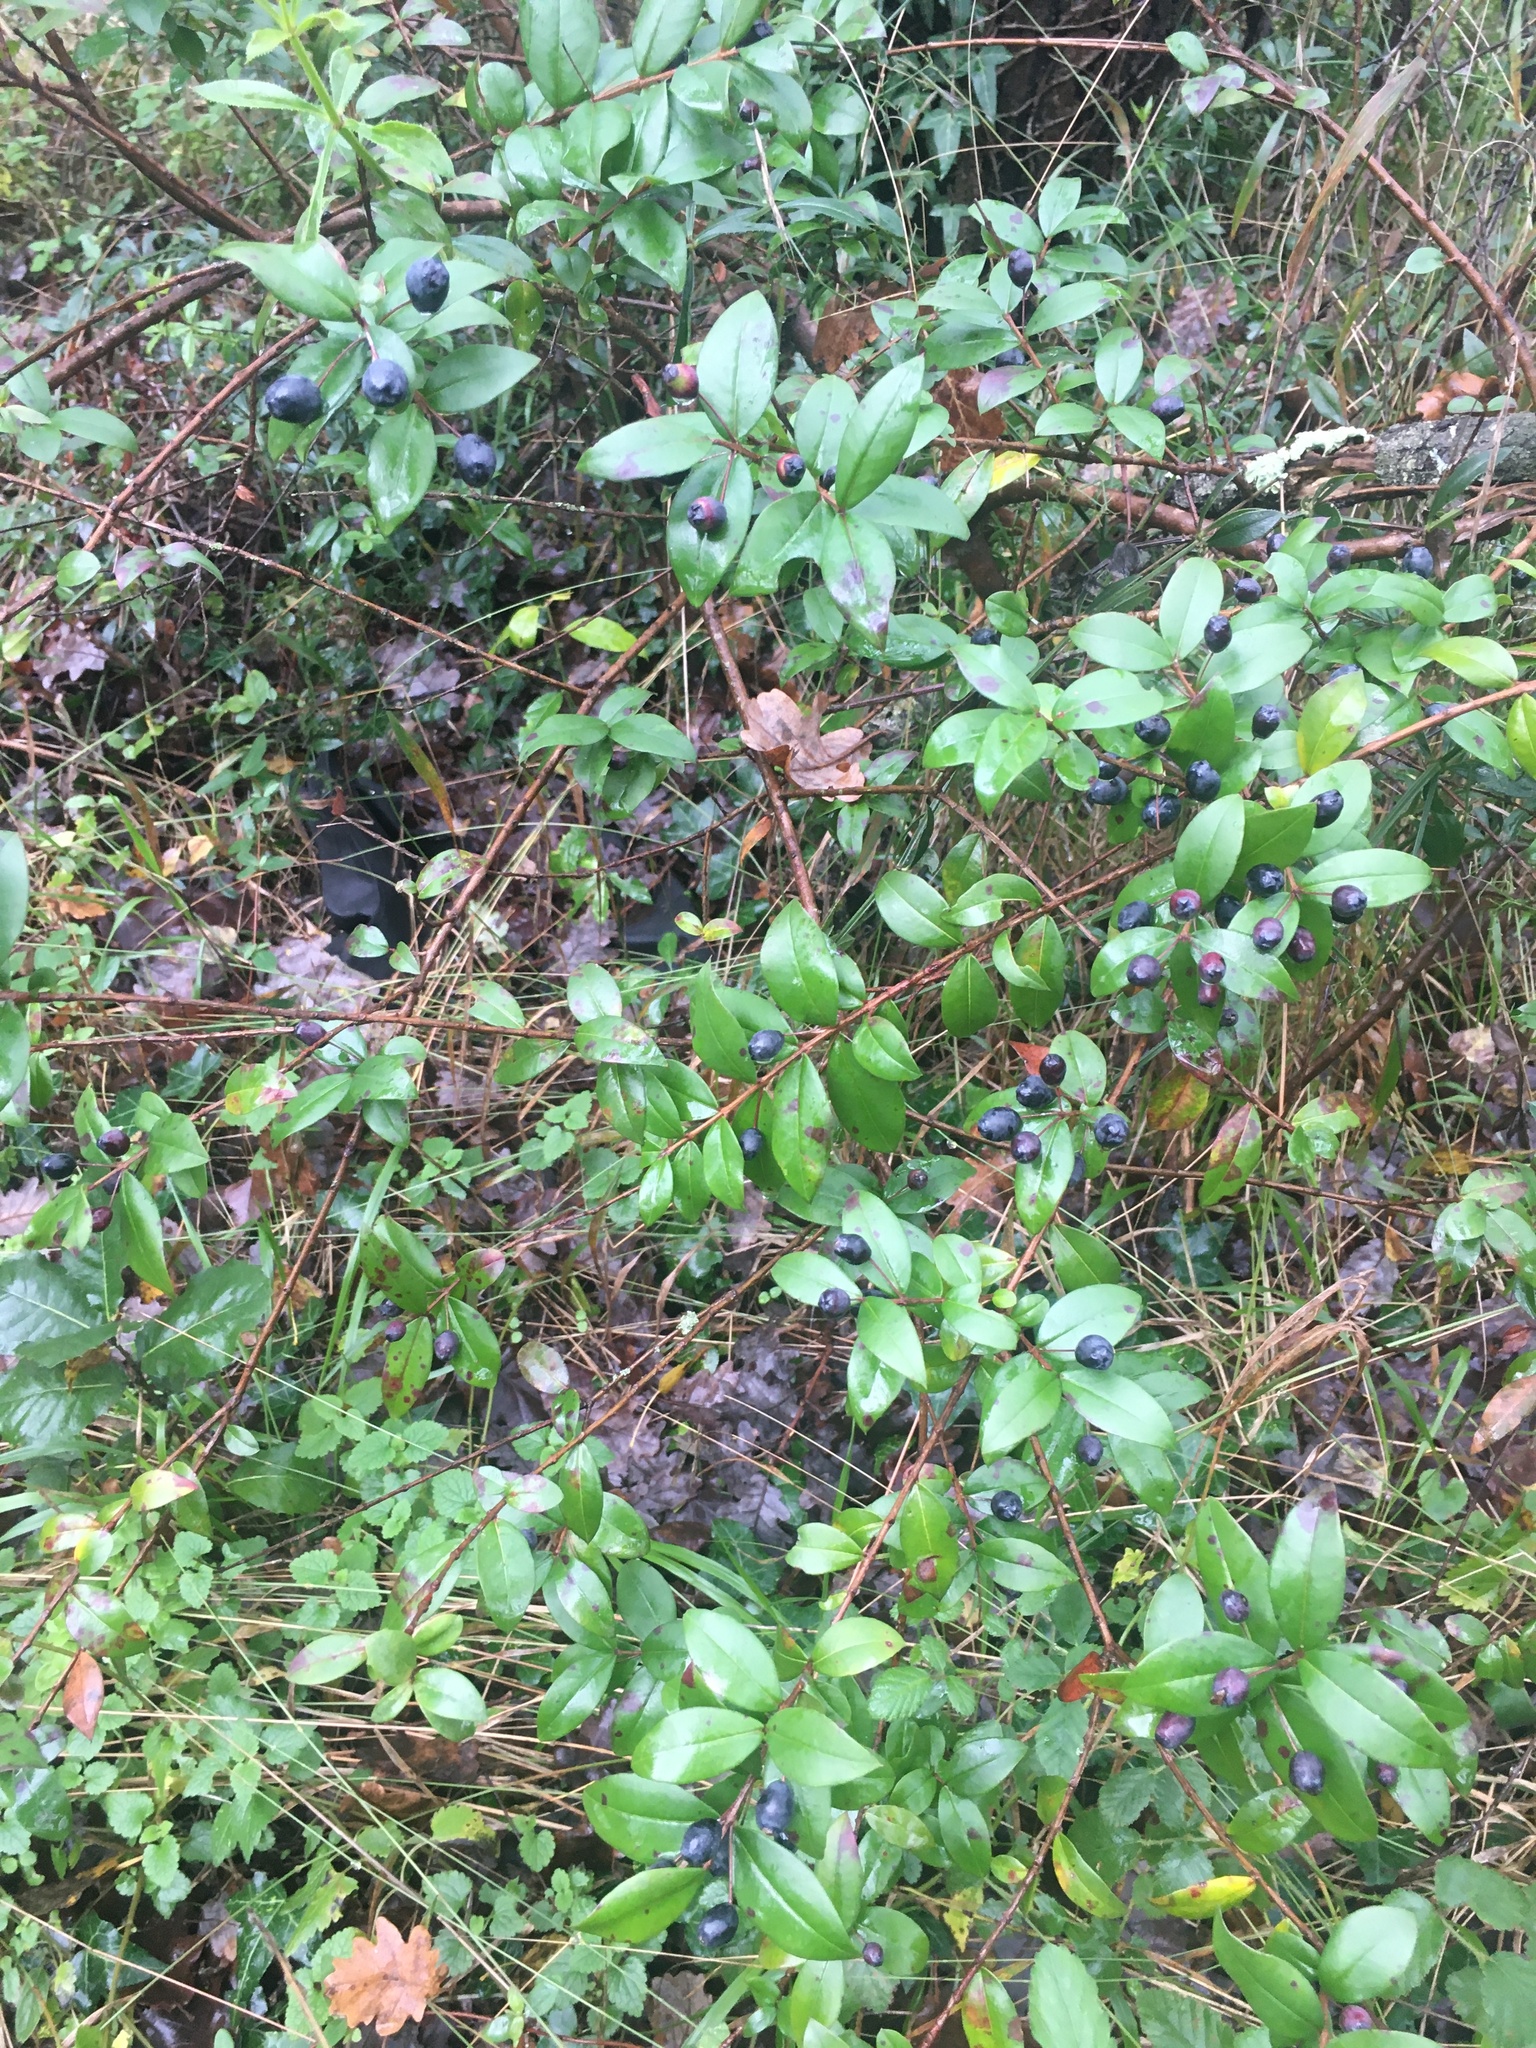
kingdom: Plantae
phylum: Tracheophyta
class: Magnoliopsida
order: Myrtales
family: Myrtaceae
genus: Myrtus
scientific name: Myrtus communis
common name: Myrtle
